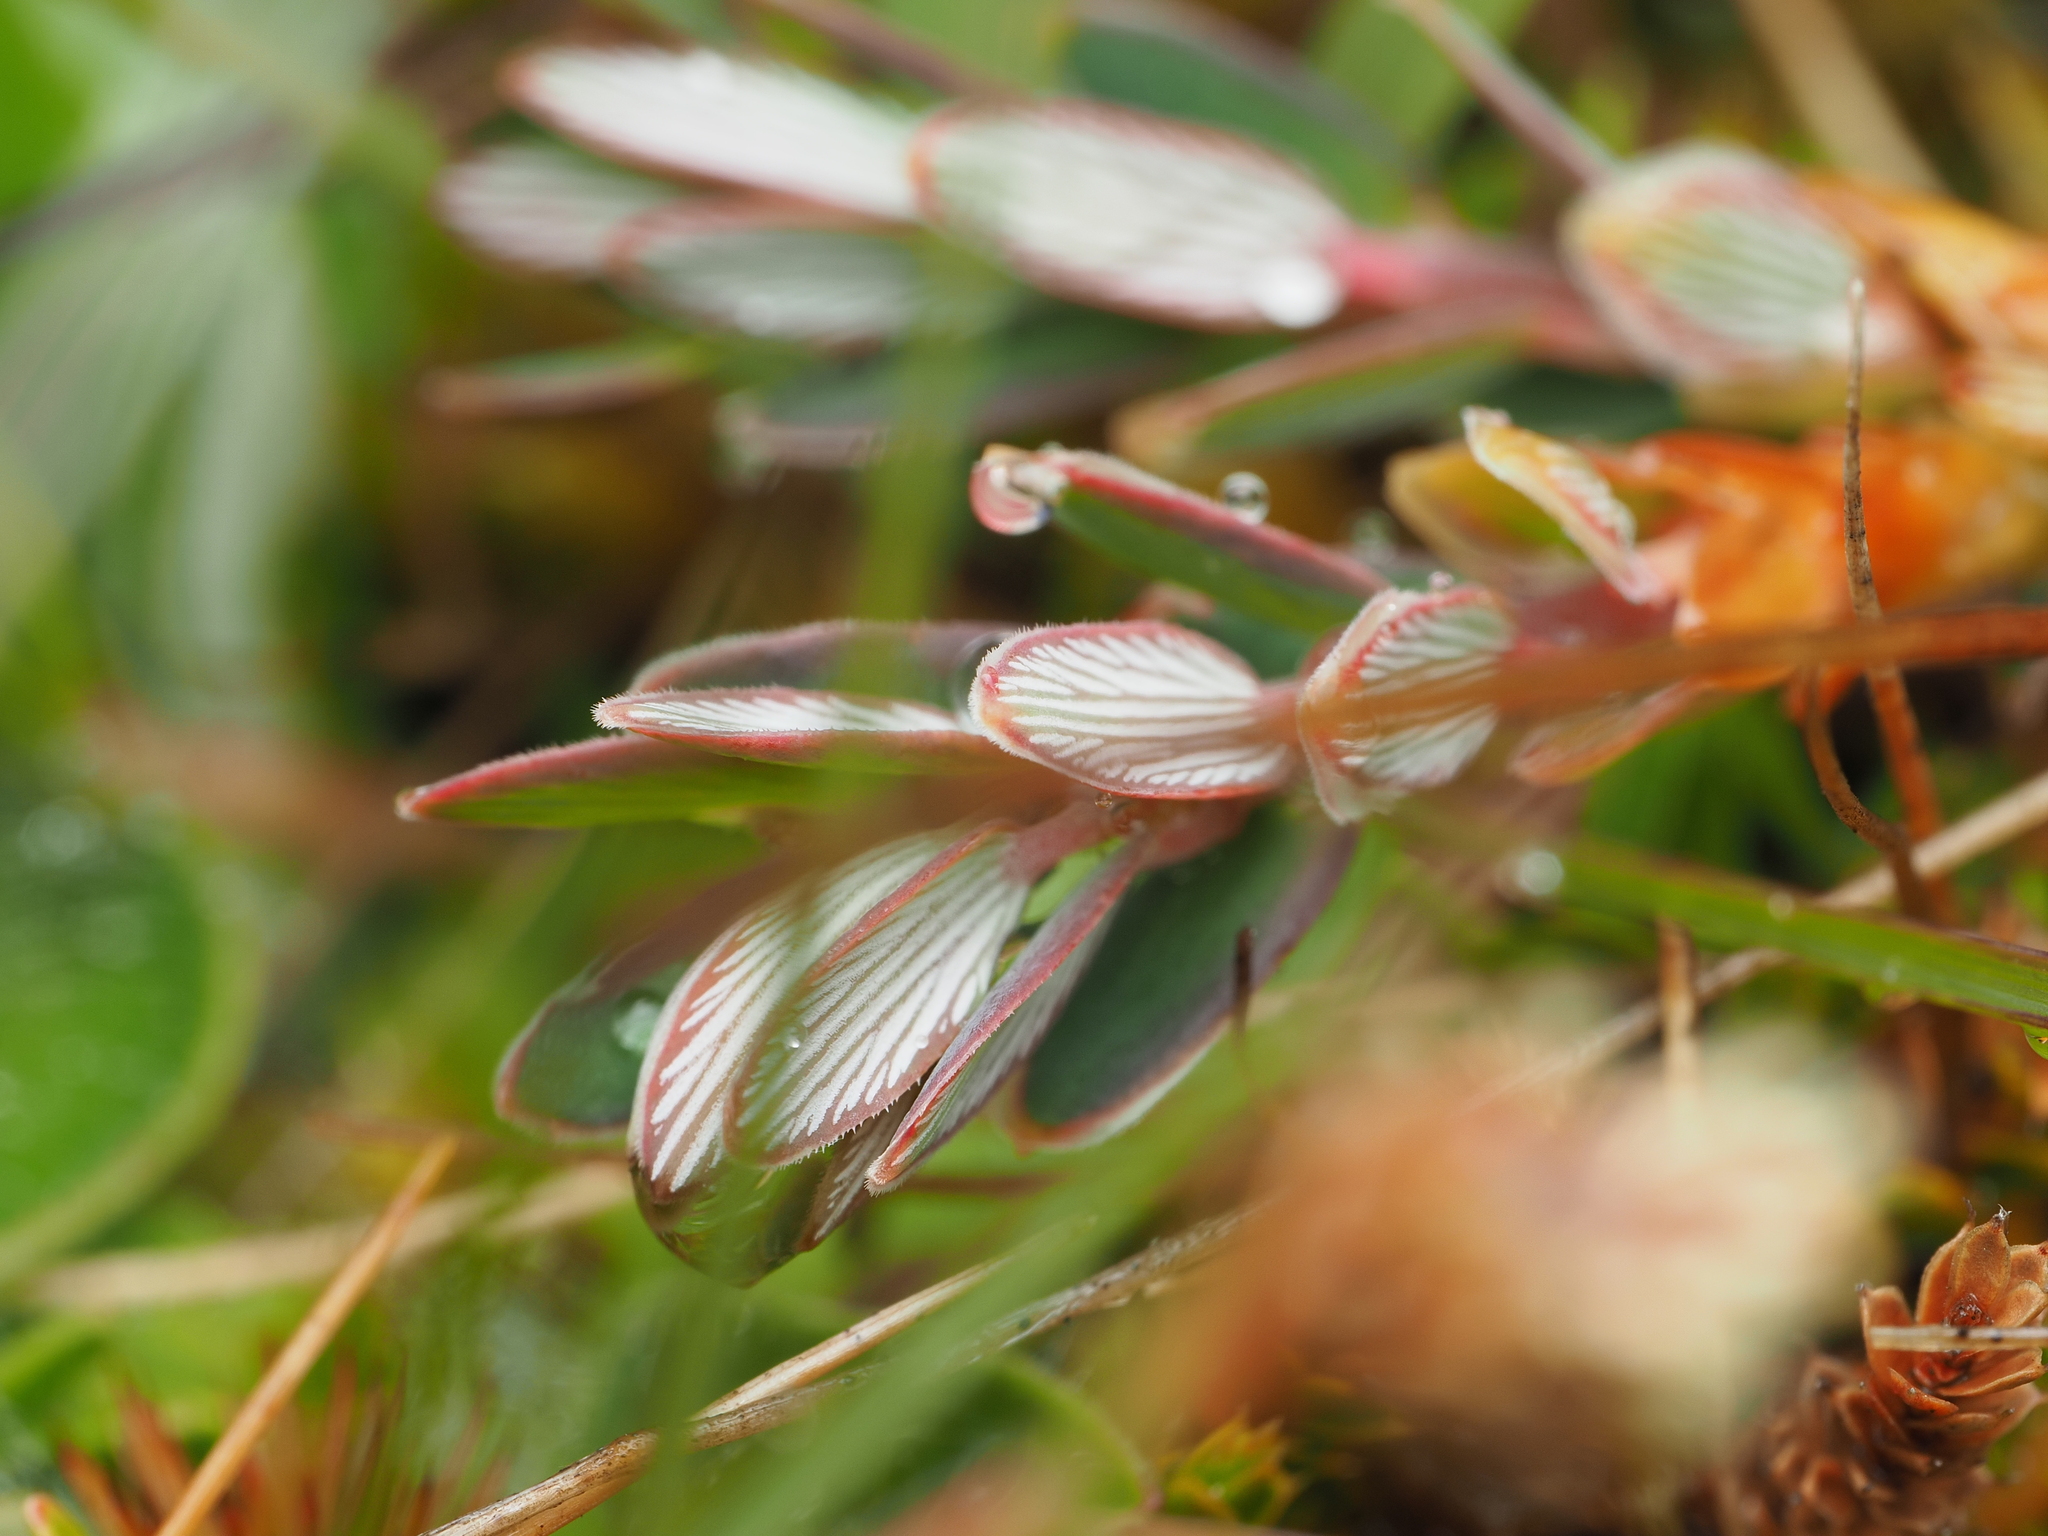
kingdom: Plantae
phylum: Tracheophyta
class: Magnoliopsida
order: Ericales
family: Ericaceae
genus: Acrothamnus
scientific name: Acrothamnus colensoi
